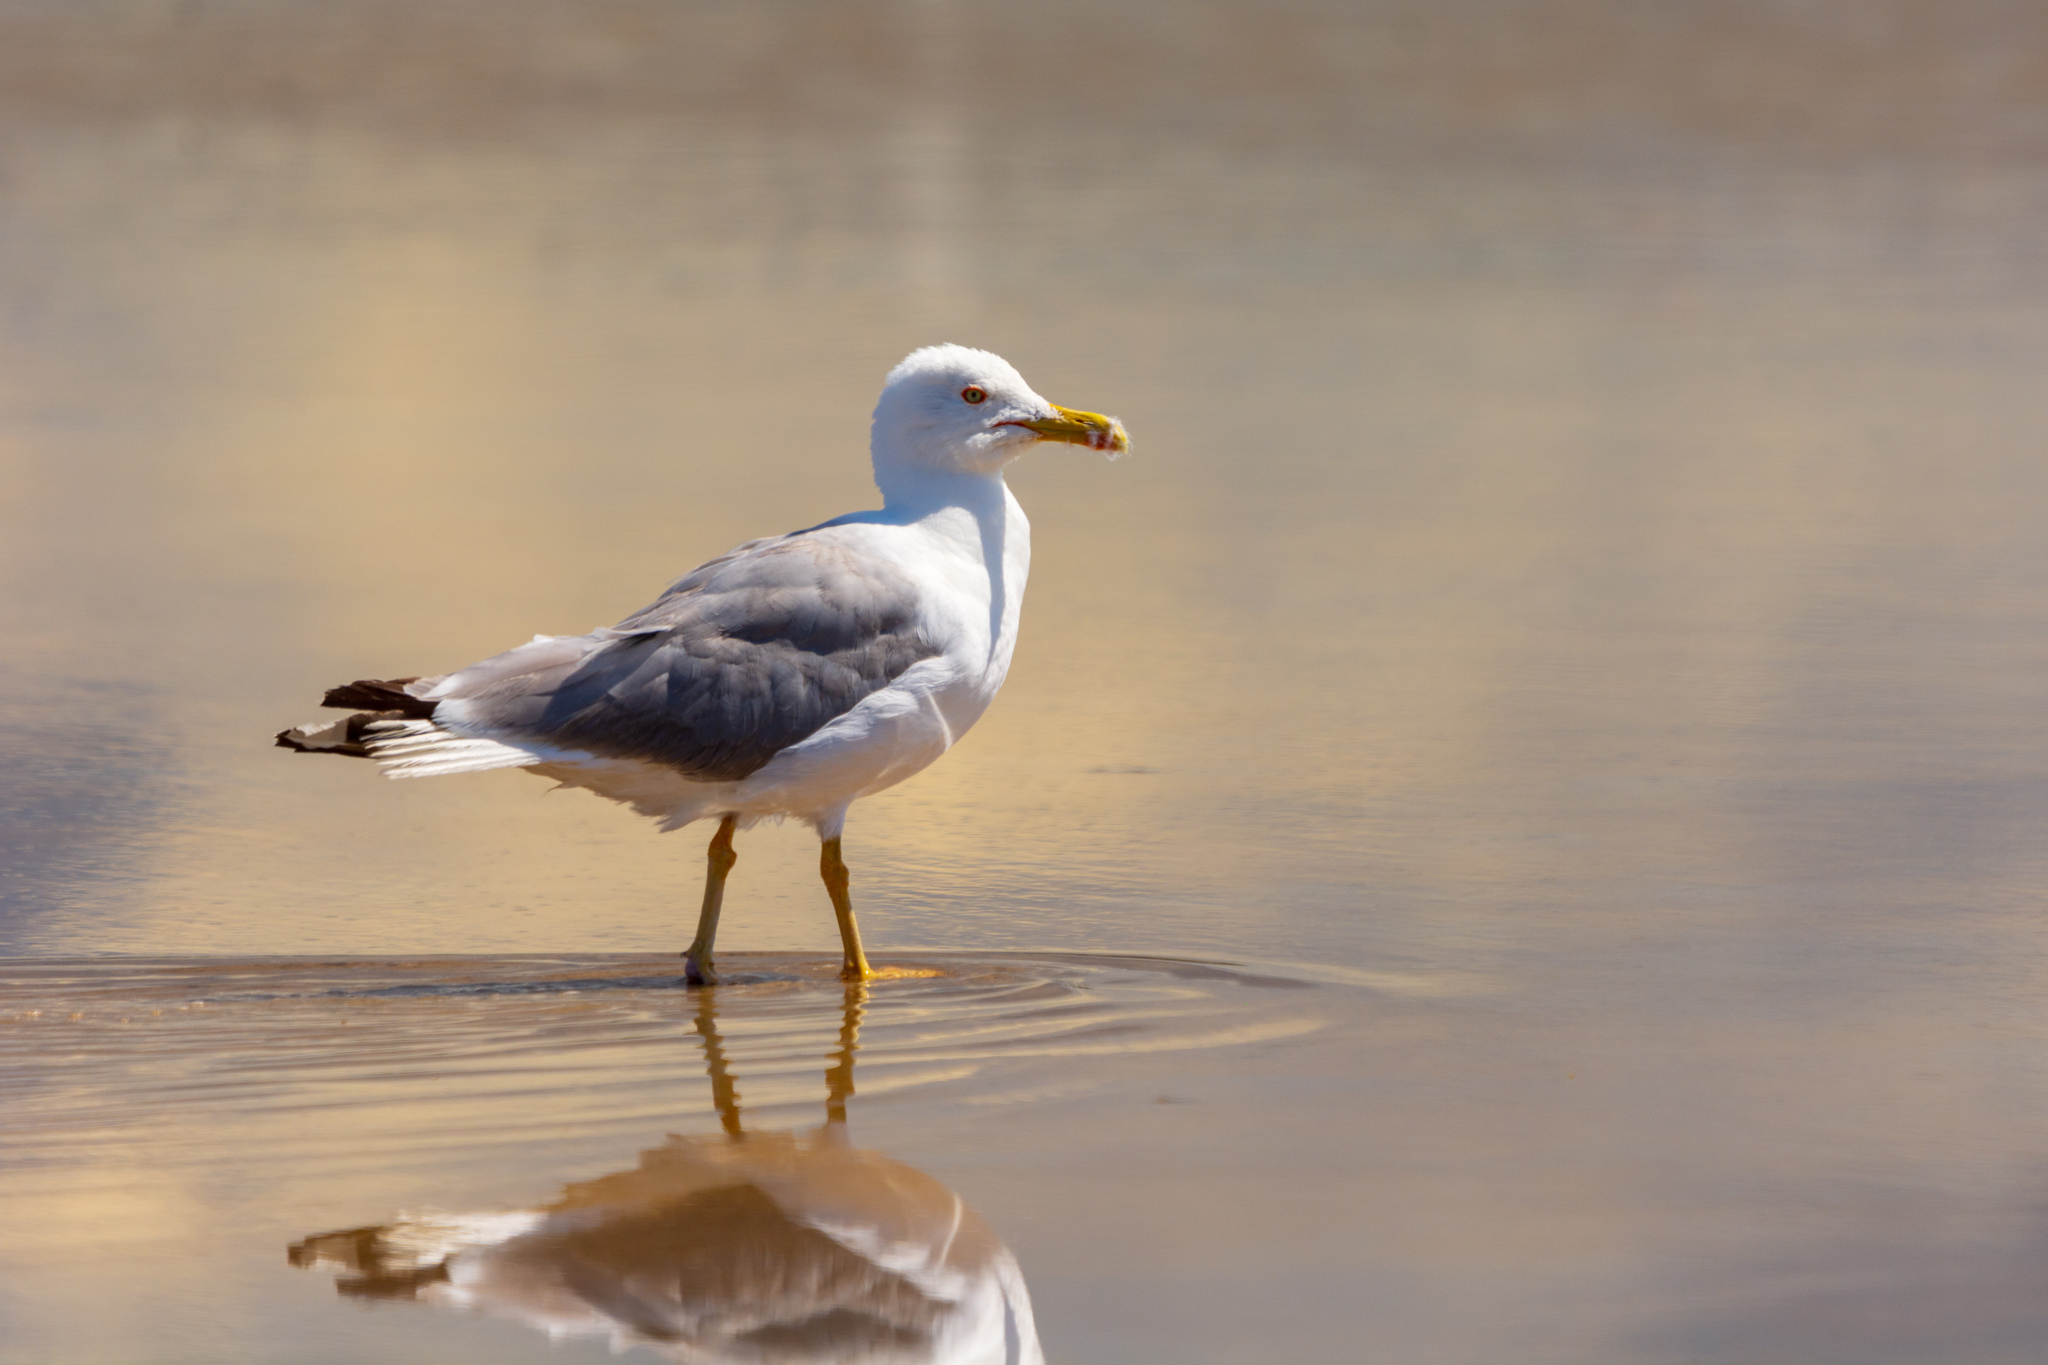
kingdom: Animalia
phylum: Chordata
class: Aves
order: Charadriiformes
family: Laridae
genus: Larus
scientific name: Larus michahellis
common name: Yellow-legged gull
